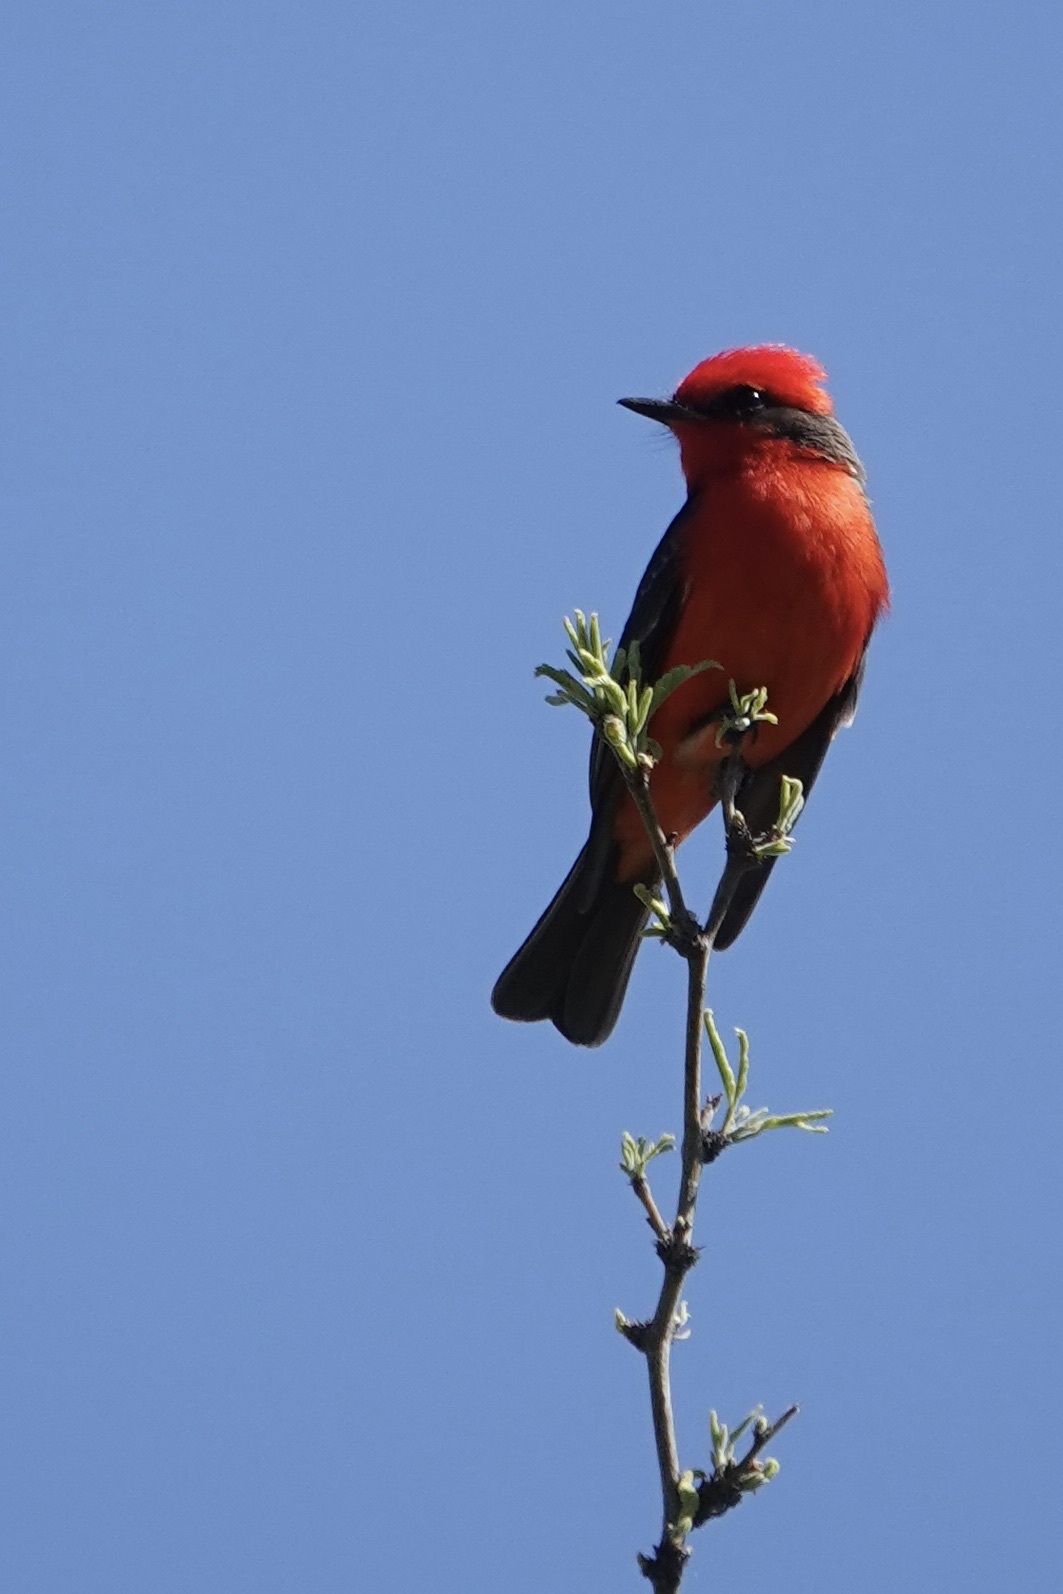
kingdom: Animalia
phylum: Chordata
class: Aves
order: Passeriformes
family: Tyrannidae
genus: Pyrocephalus
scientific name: Pyrocephalus rubinus
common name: Vermilion flycatcher
